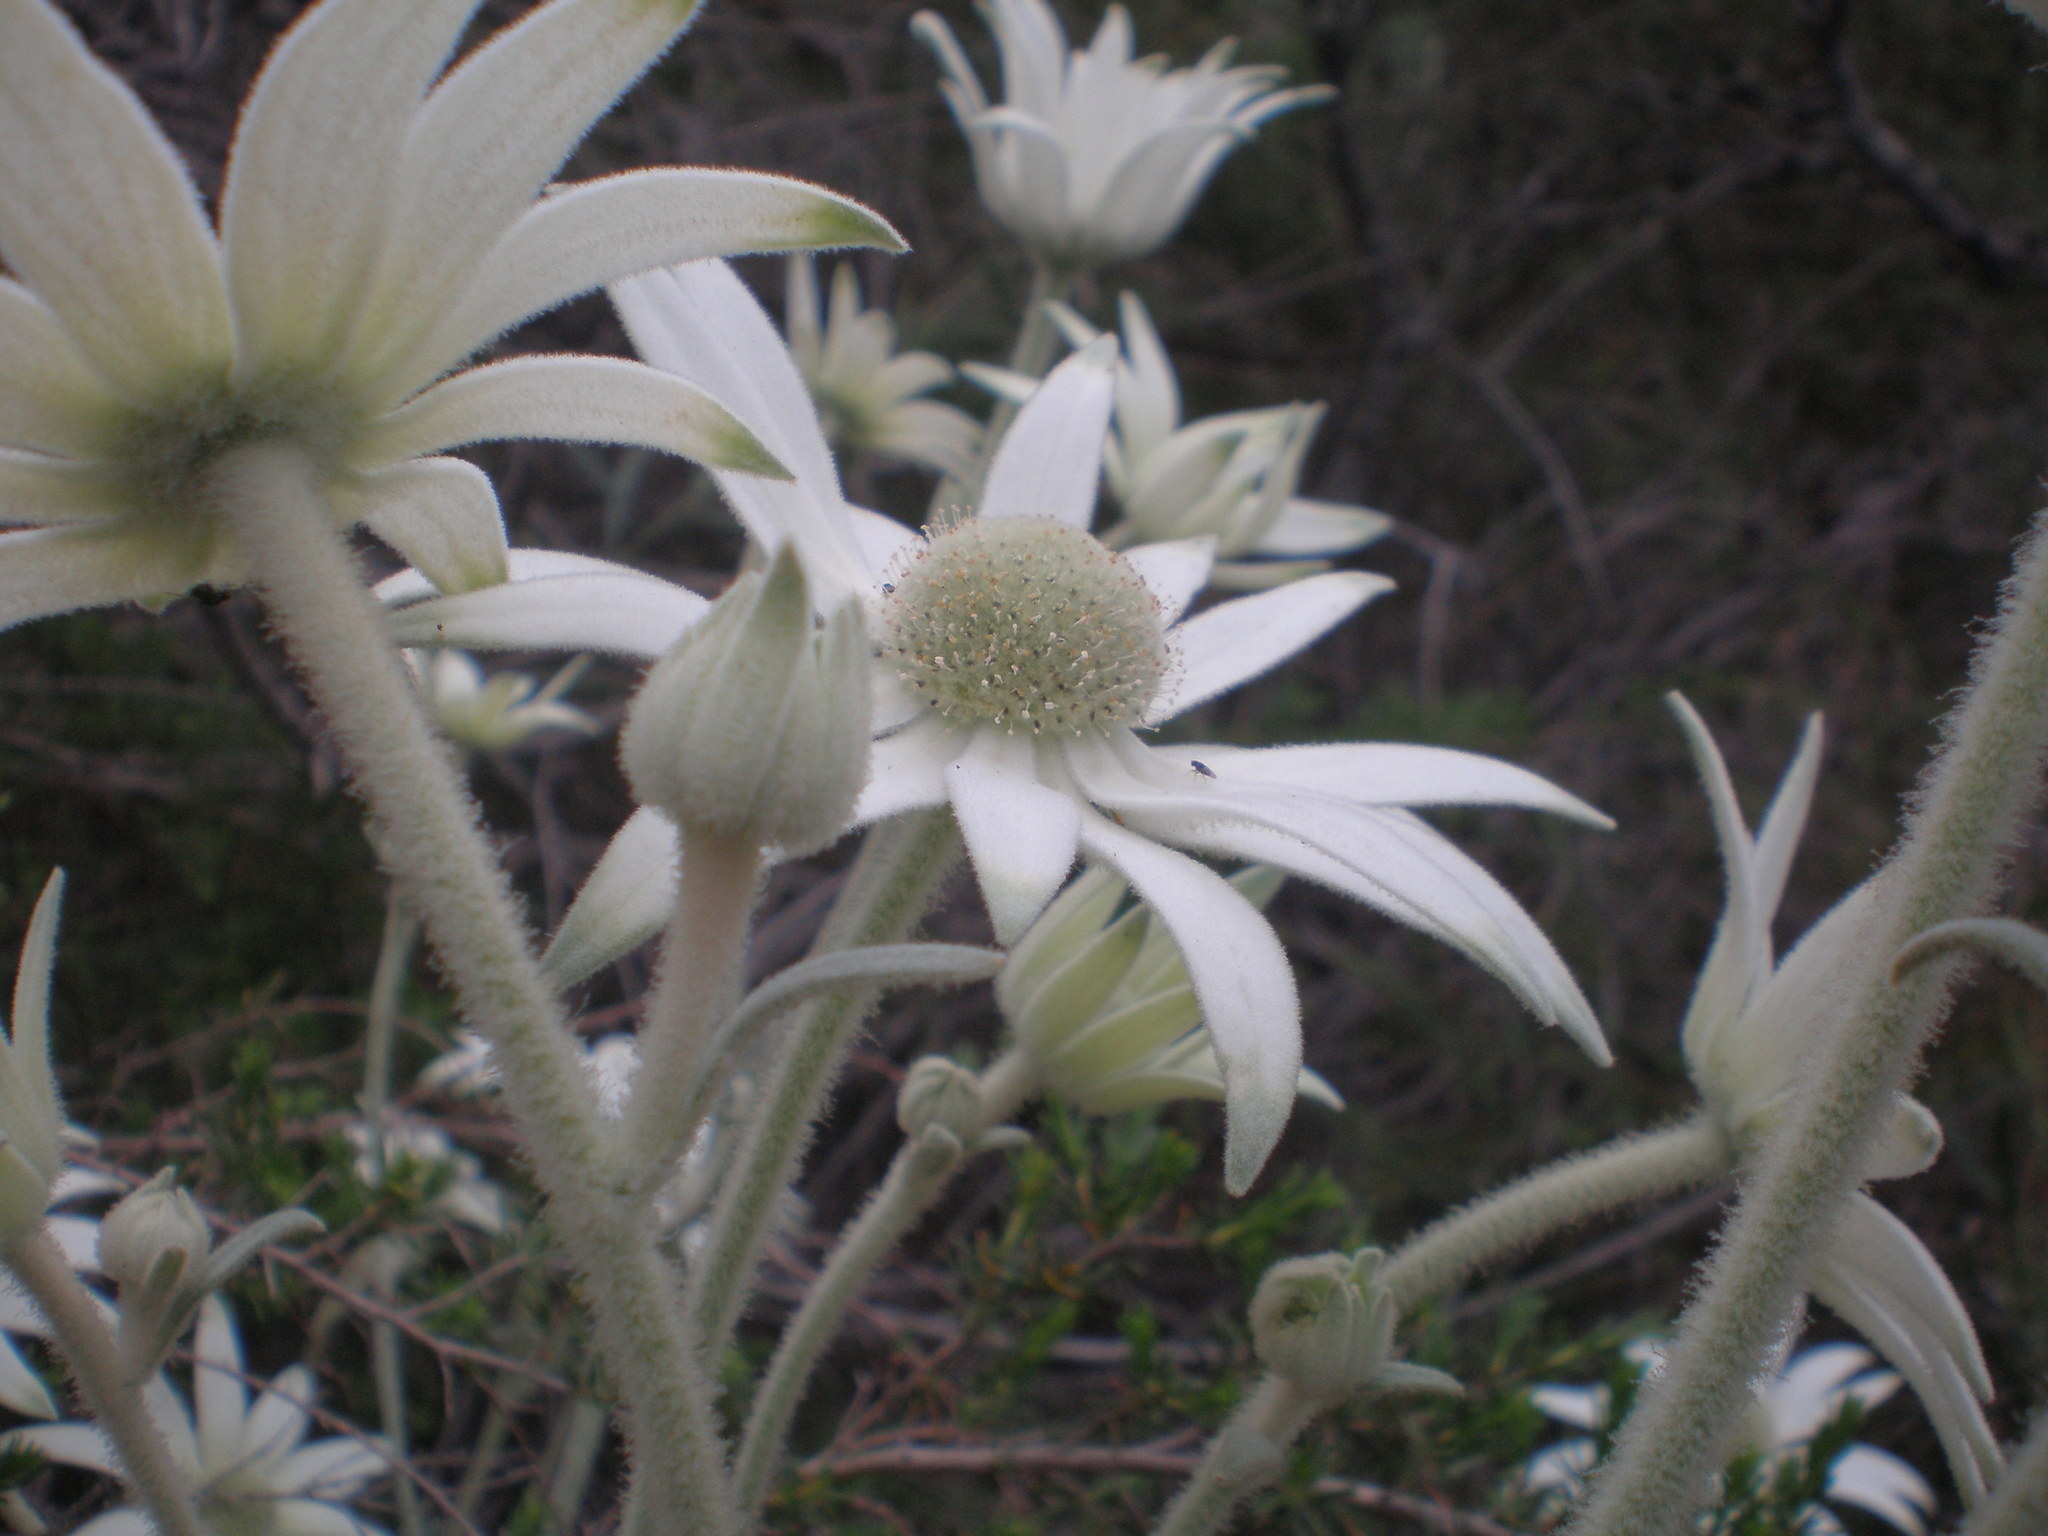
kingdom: Plantae
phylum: Tracheophyta
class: Magnoliopsida
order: Apiales
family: Apiaceae
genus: Actinotus
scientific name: Actinotus helianthi
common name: Flannel-flower
